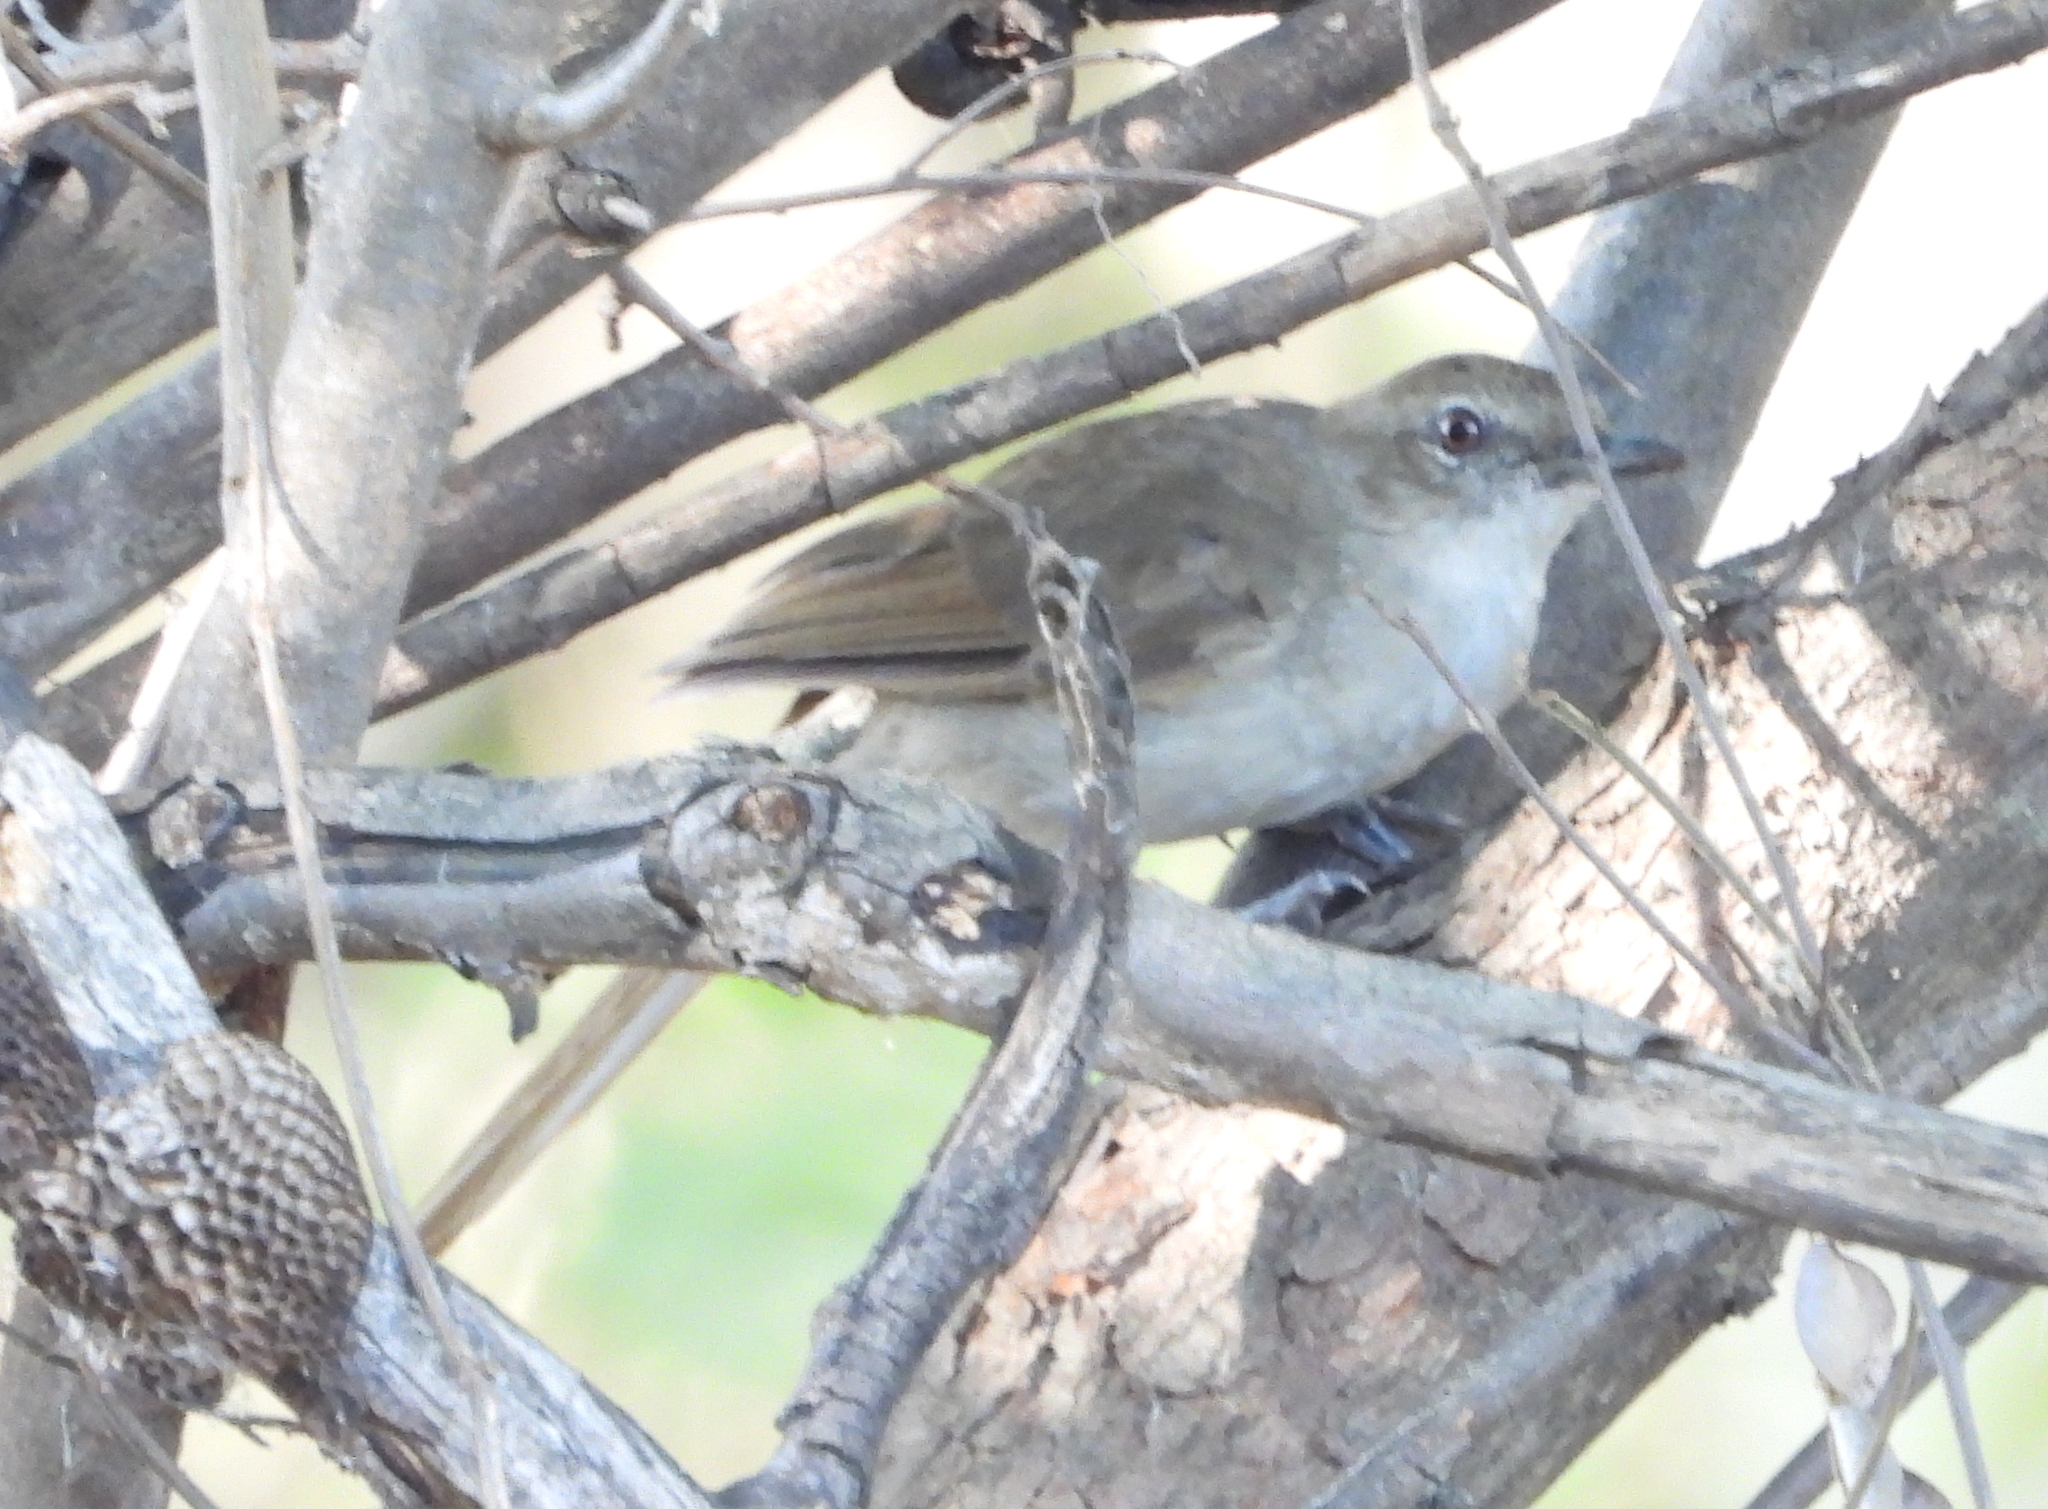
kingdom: Animalia
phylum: Chordata
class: Aves
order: Passeriformes
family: Pycnonotidae
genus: Phyllastrephus
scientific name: Phyllastrephus terrestris
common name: Terrestrial brownbul
